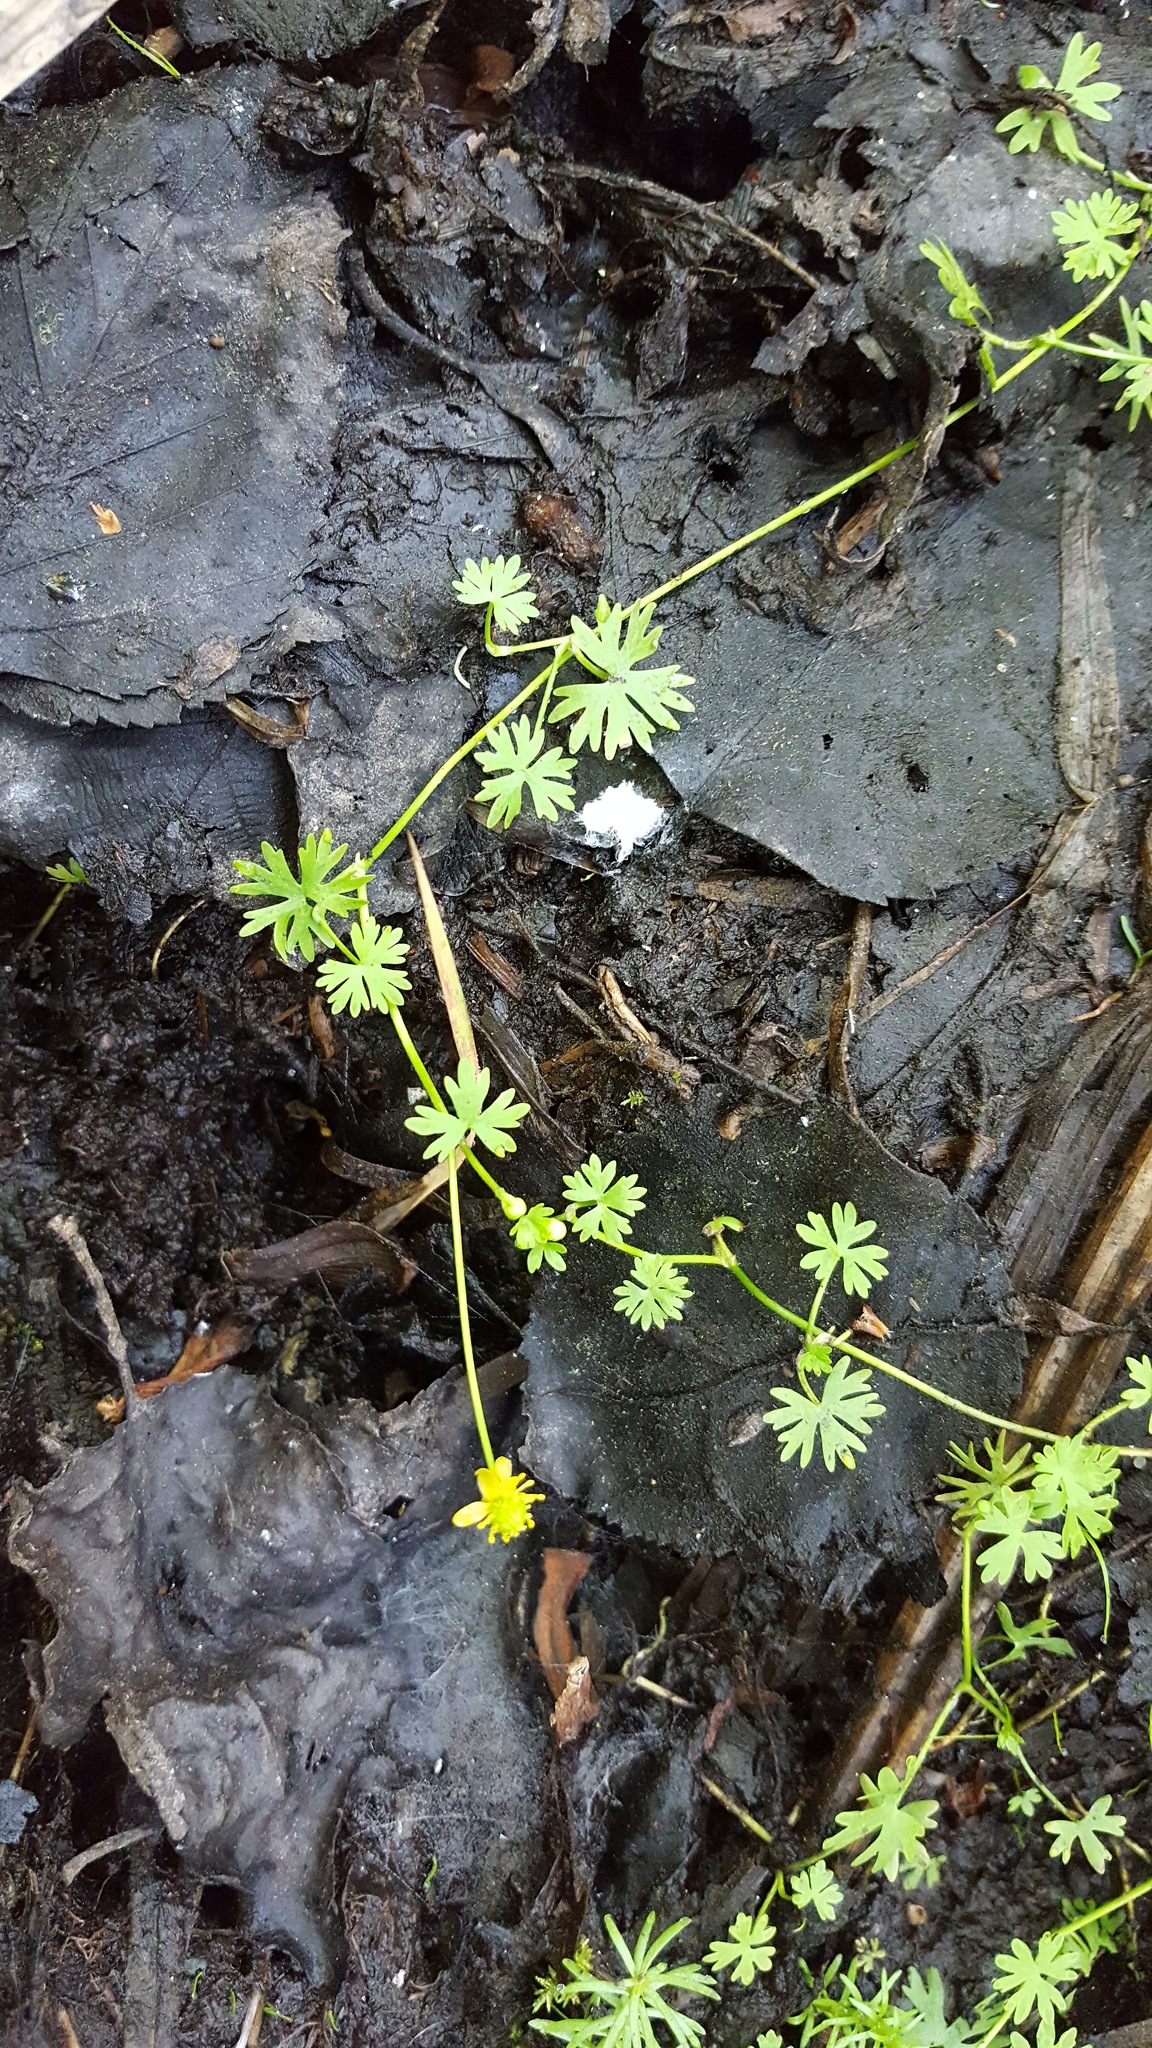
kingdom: Plantae
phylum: Tracheophyta
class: Magnoliopsida
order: Ranunculales
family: Ranunculaceae
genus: Ranunculus
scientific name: Ranunculus gmelinii
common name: Gmelin's buttercup
